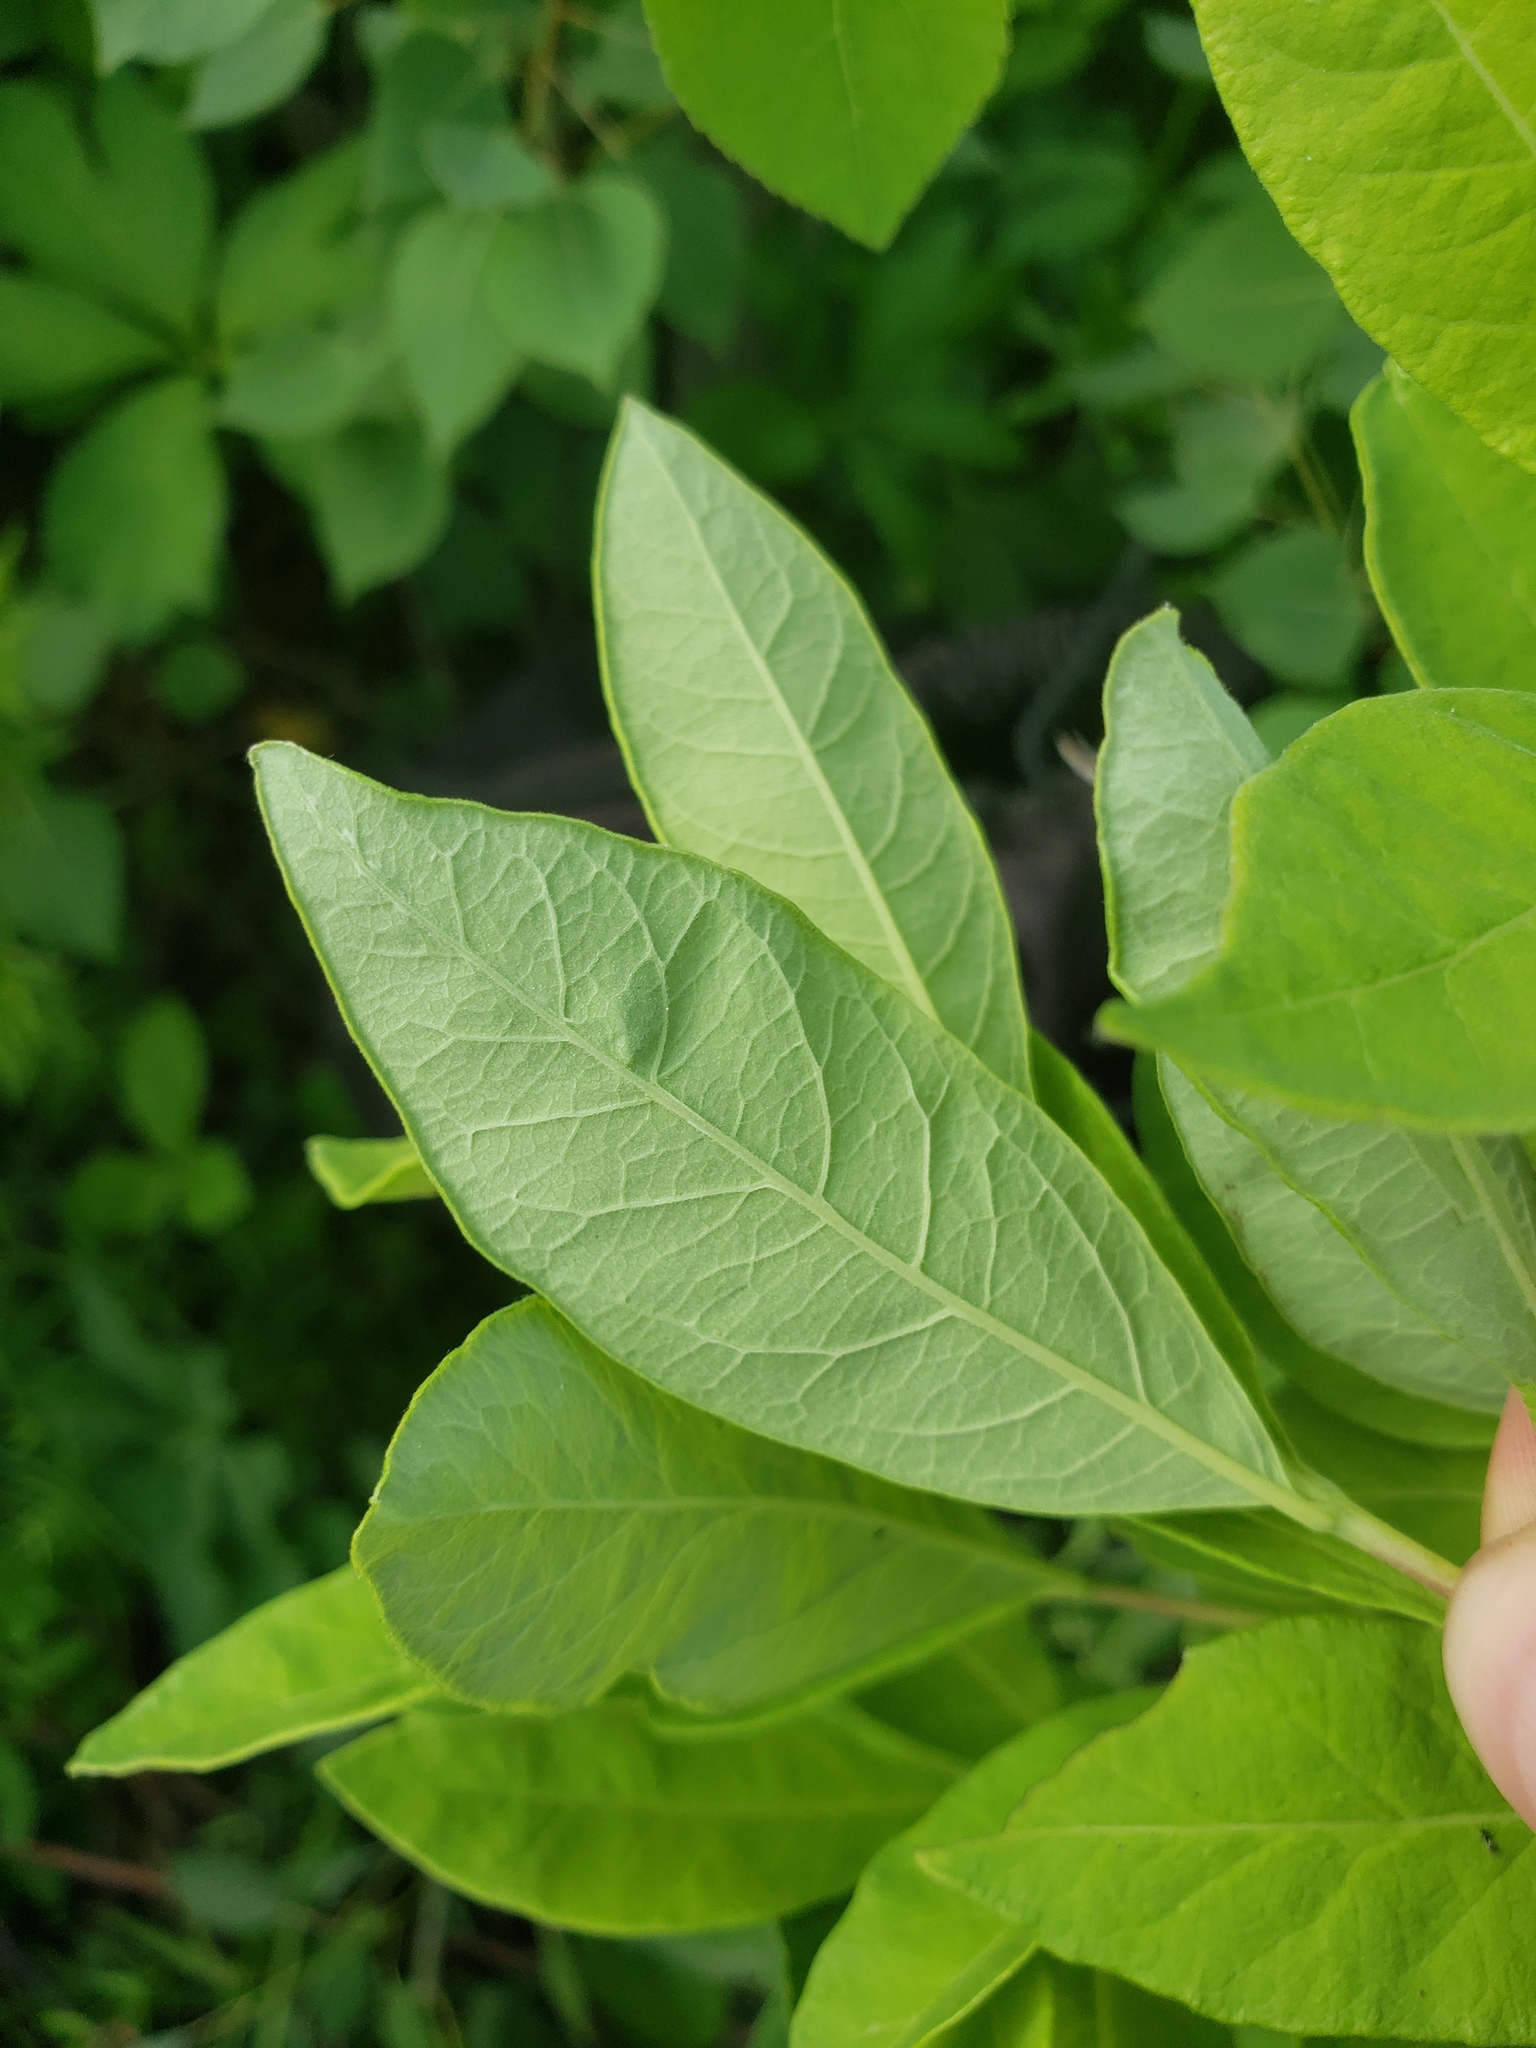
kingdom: Plantae
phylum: Tracheophyta
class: Magnoliopsida
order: Dipsacales
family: Caprifoliaceae
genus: Lonicera
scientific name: Lonicera oblongifolia
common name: Swamp fly honeysuckle
